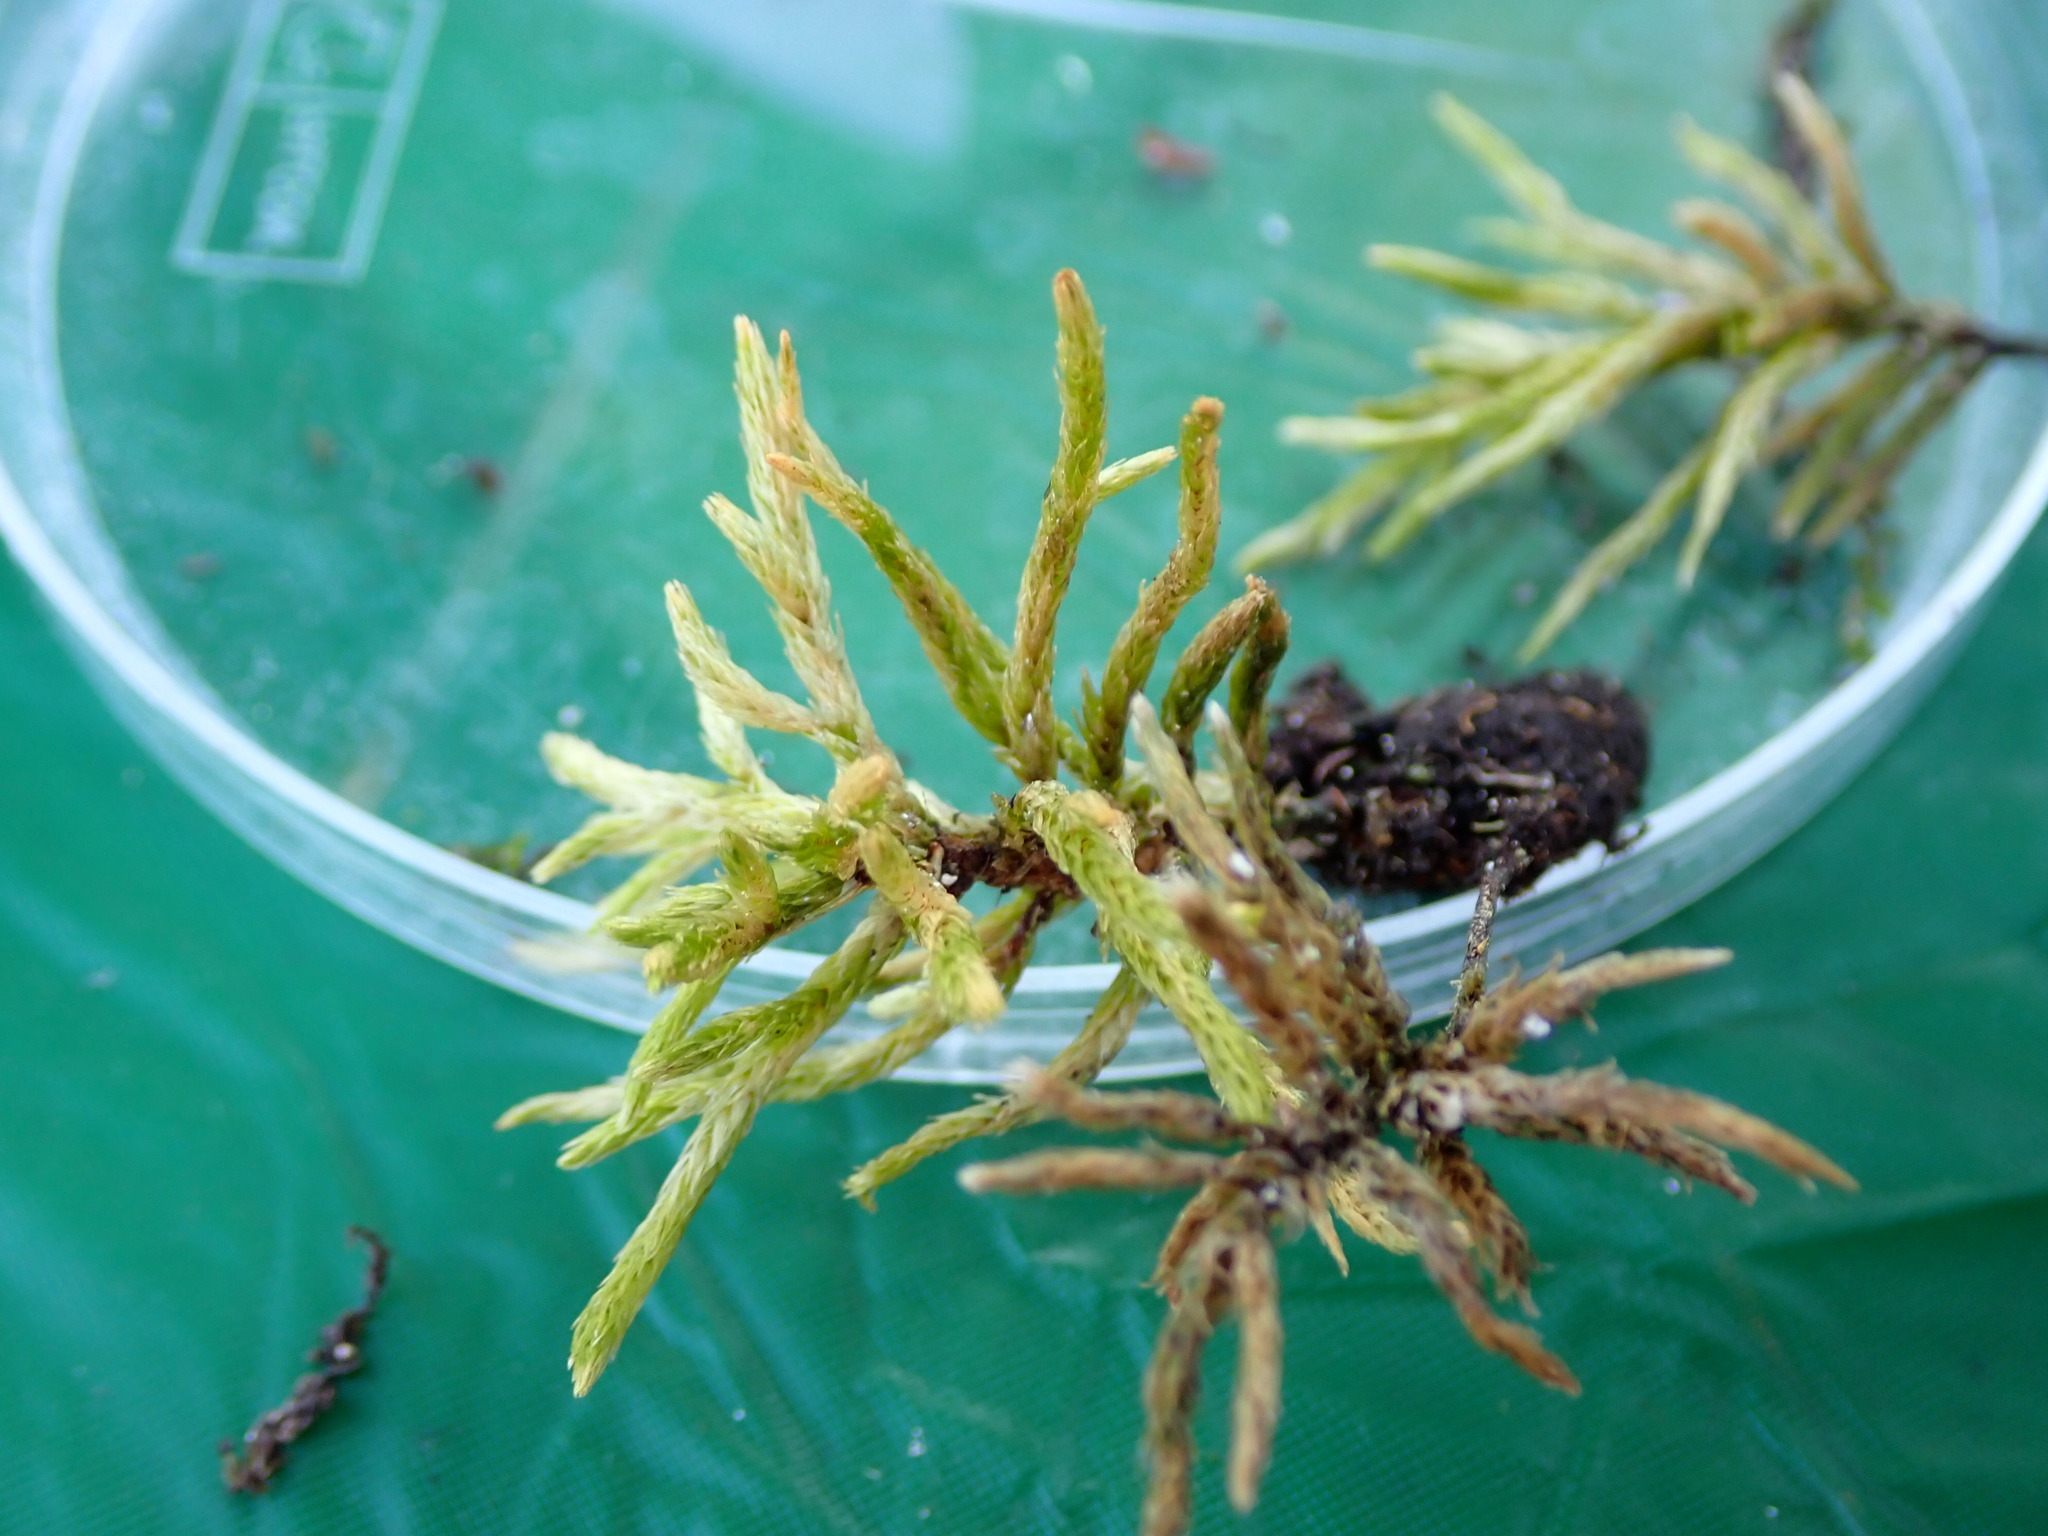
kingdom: Plantae
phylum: Bryophyta
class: Bryopsida
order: Hypnales
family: Climaciaceae
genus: Climacium
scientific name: Climacium americanum
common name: American tree moss
